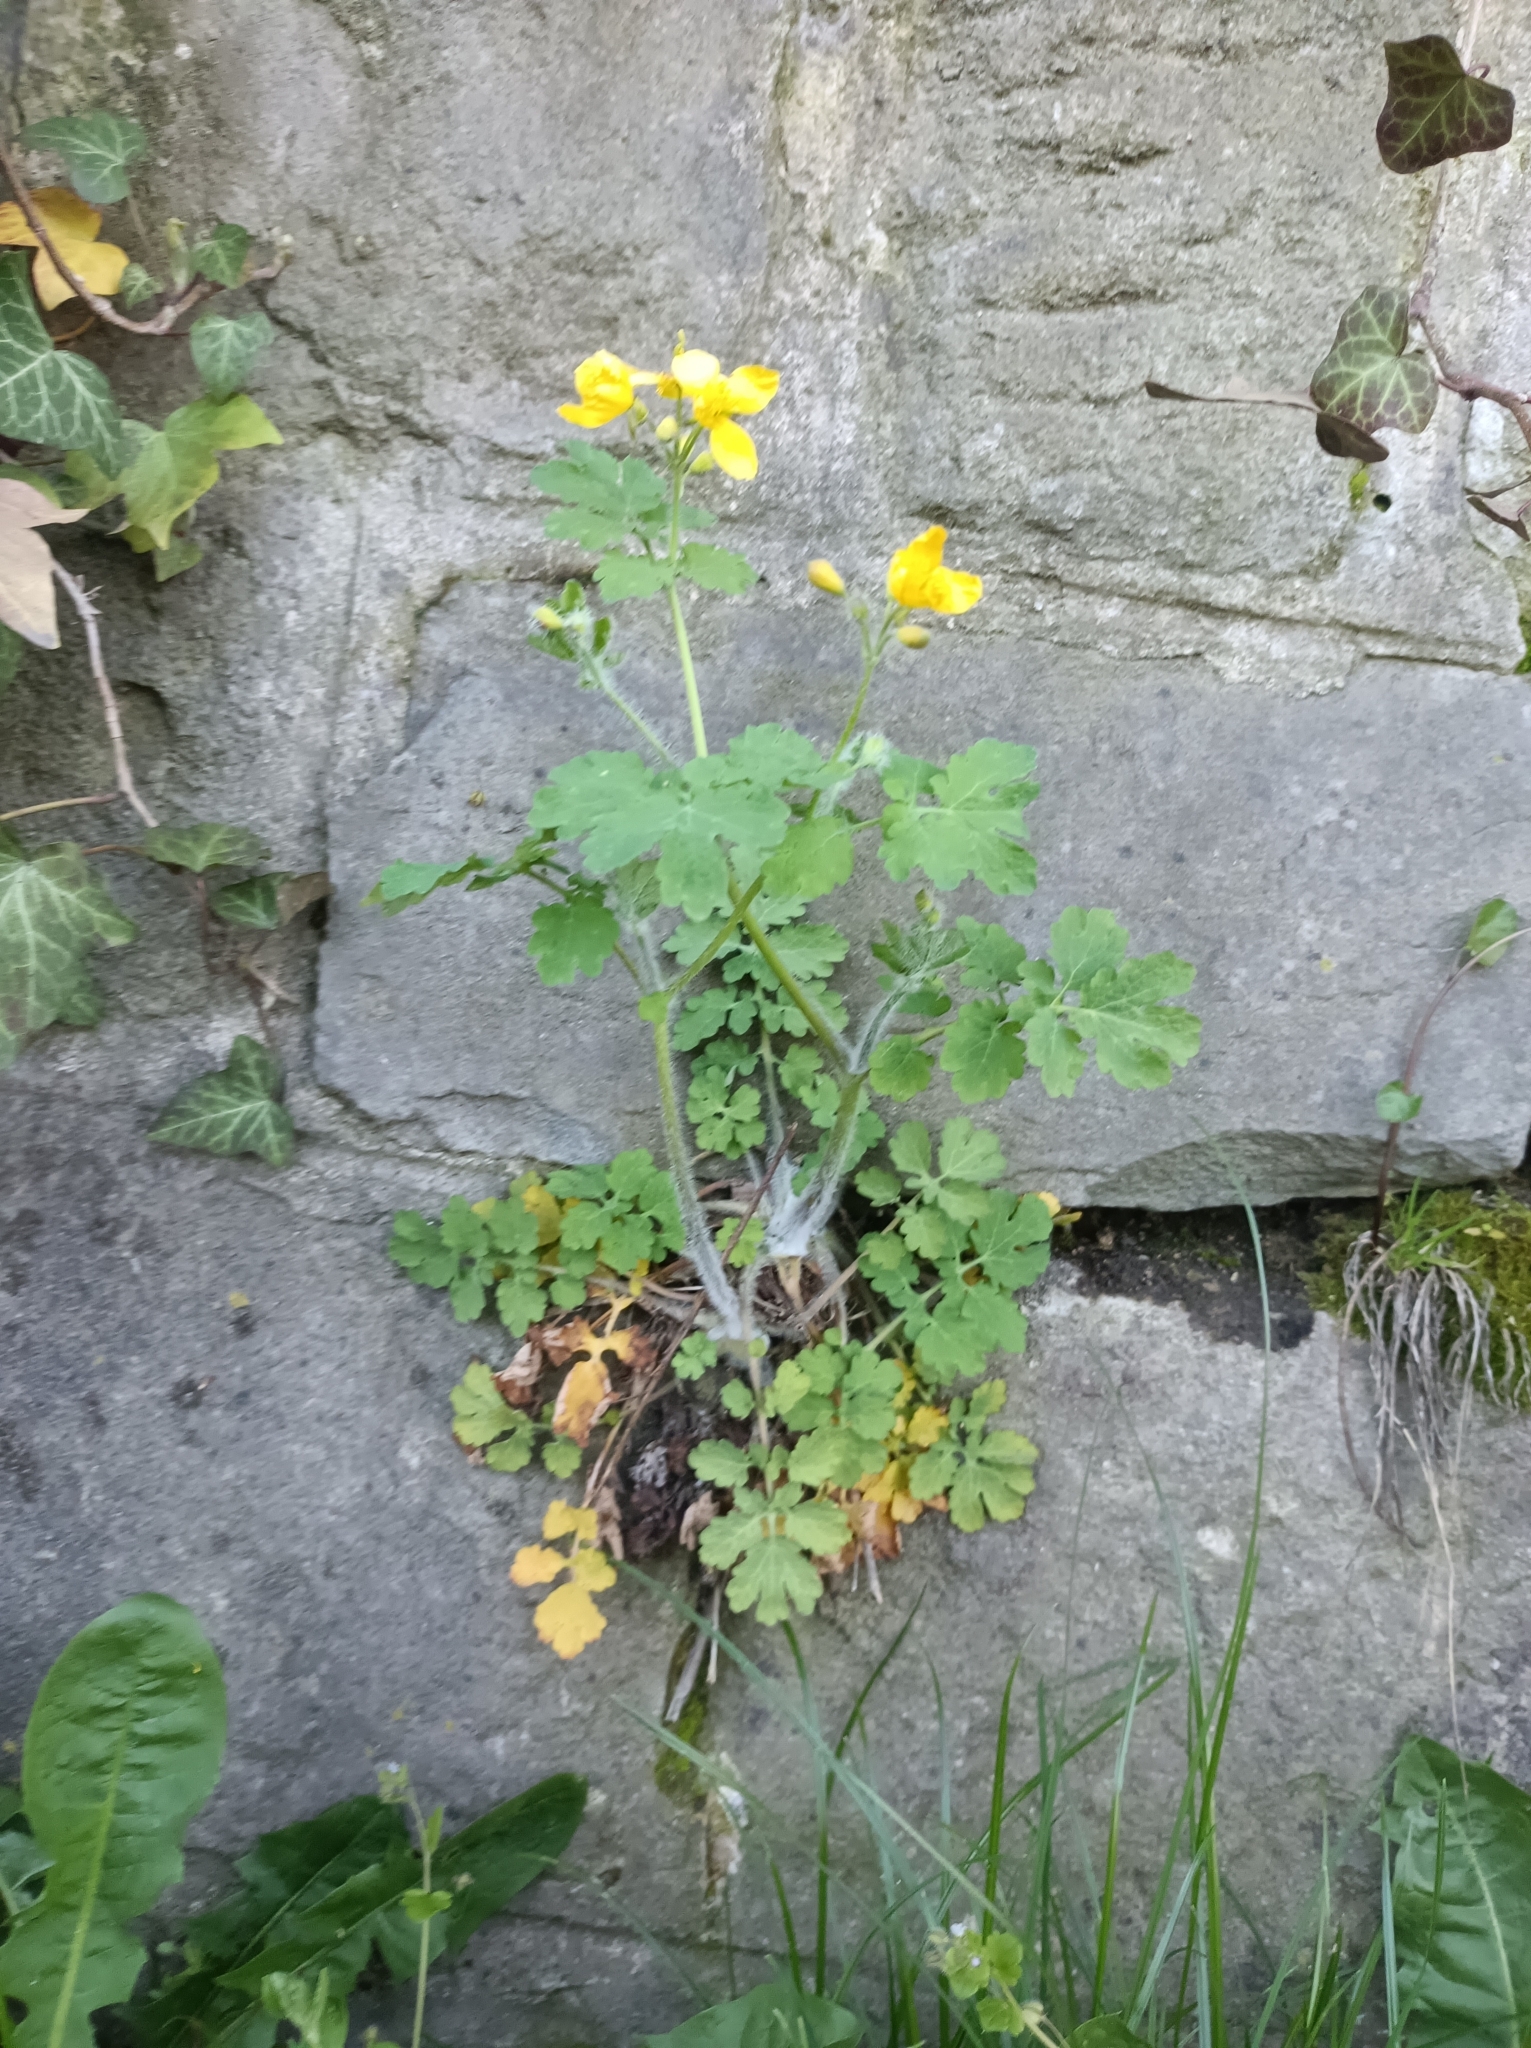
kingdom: Plantae
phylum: Tracheophyta
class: Magnoliopsida
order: Ranunculales
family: Papaveraceae
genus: Chelidonium
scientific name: Chelidonium majus
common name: Greater celandine
